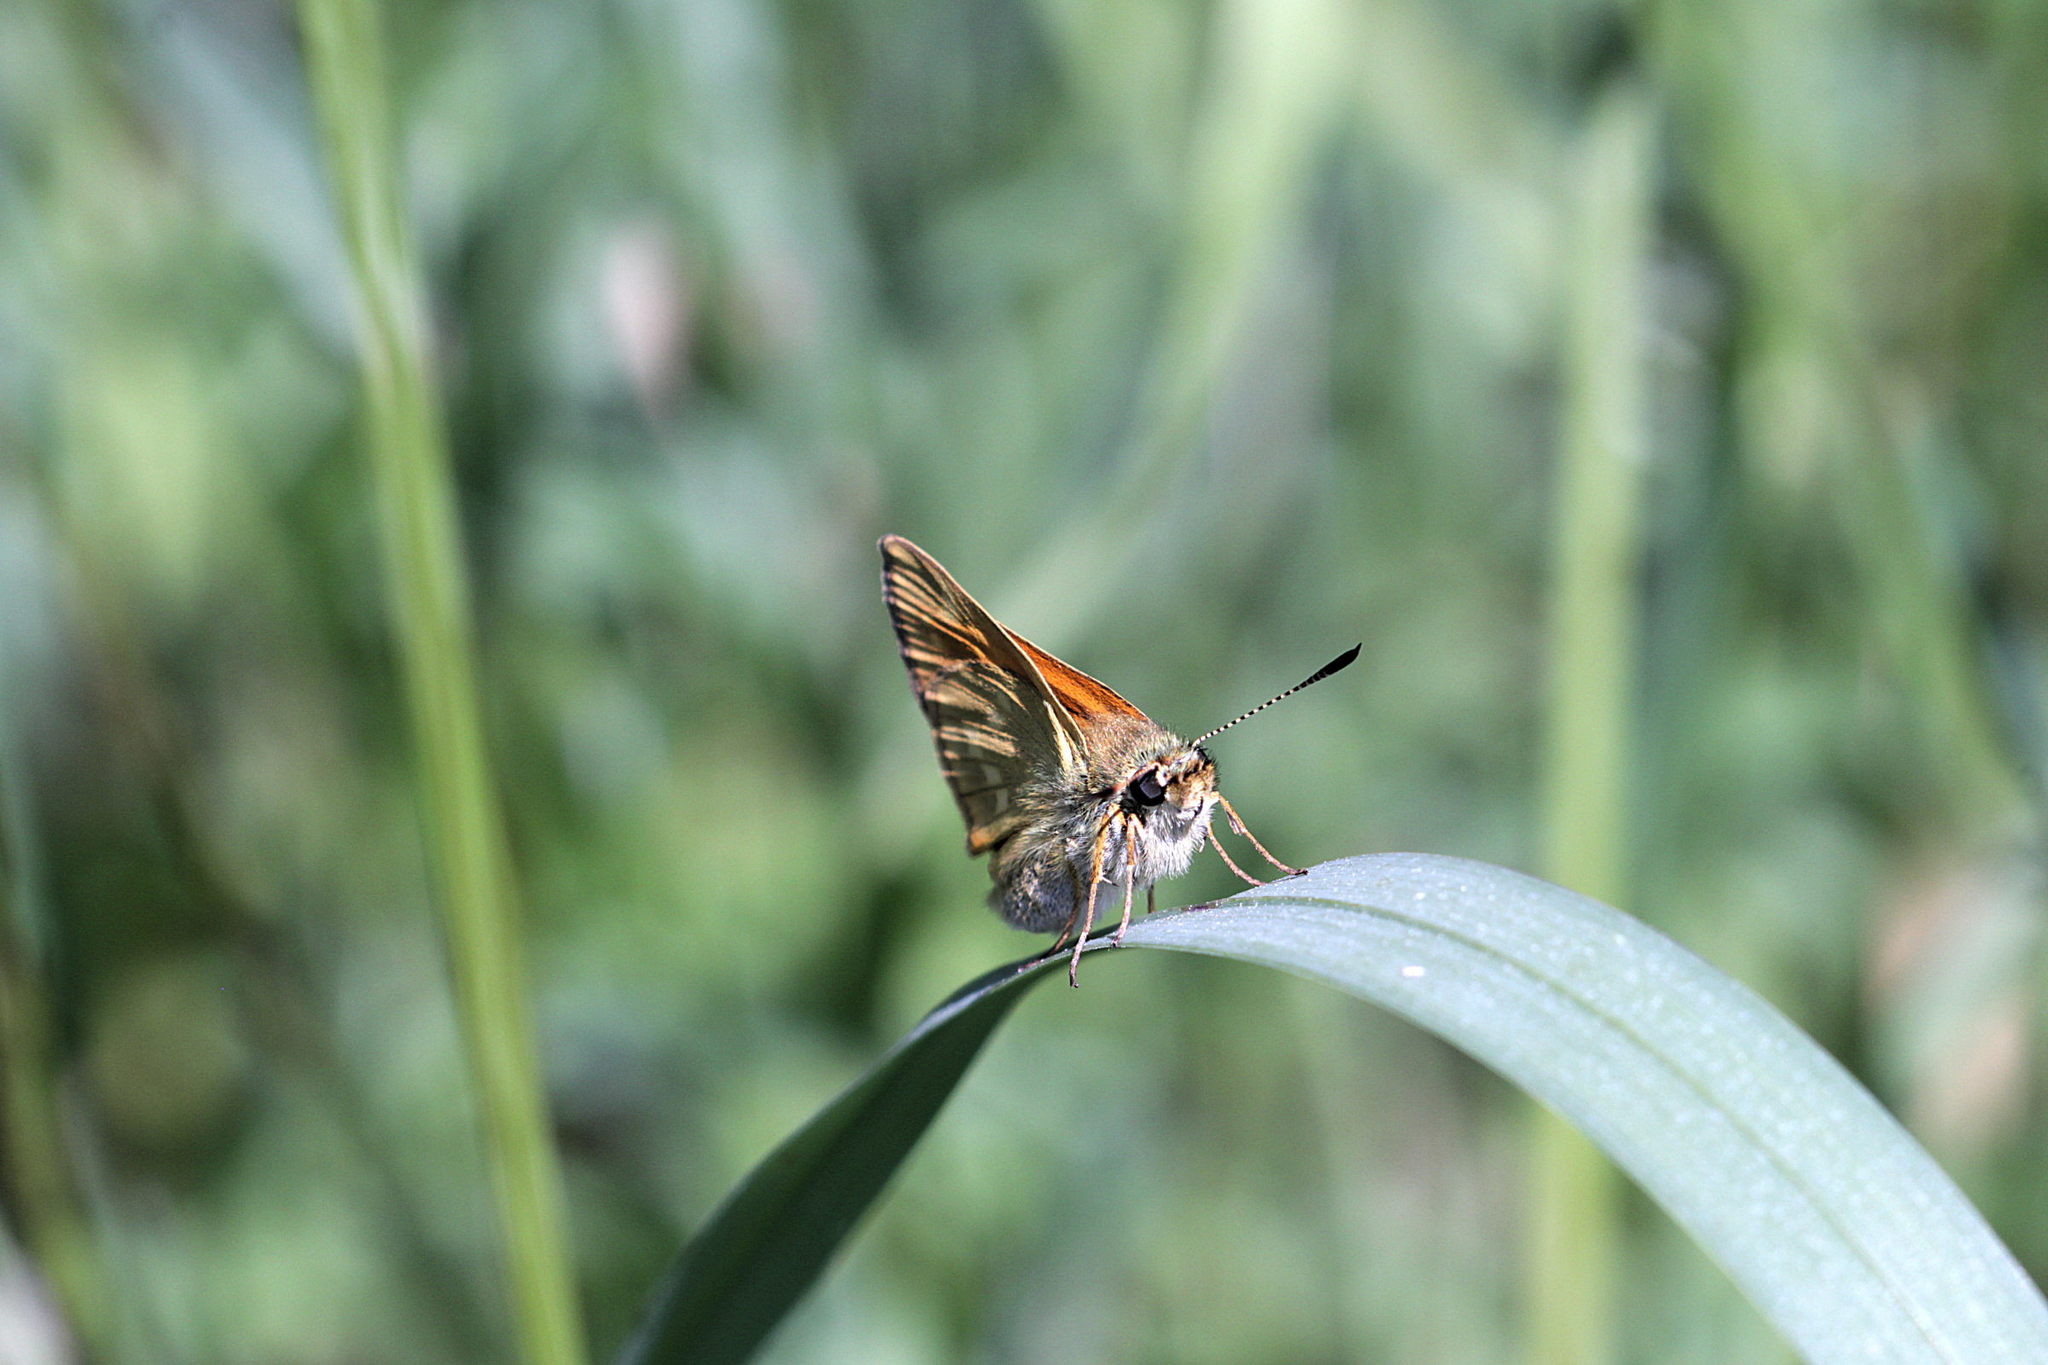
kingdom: Animalia
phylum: Arthropoda
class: Insecta
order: Lepidoptera
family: Hesperiidae
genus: Ochlodes
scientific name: Ochlodes venata
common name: Large skipper
